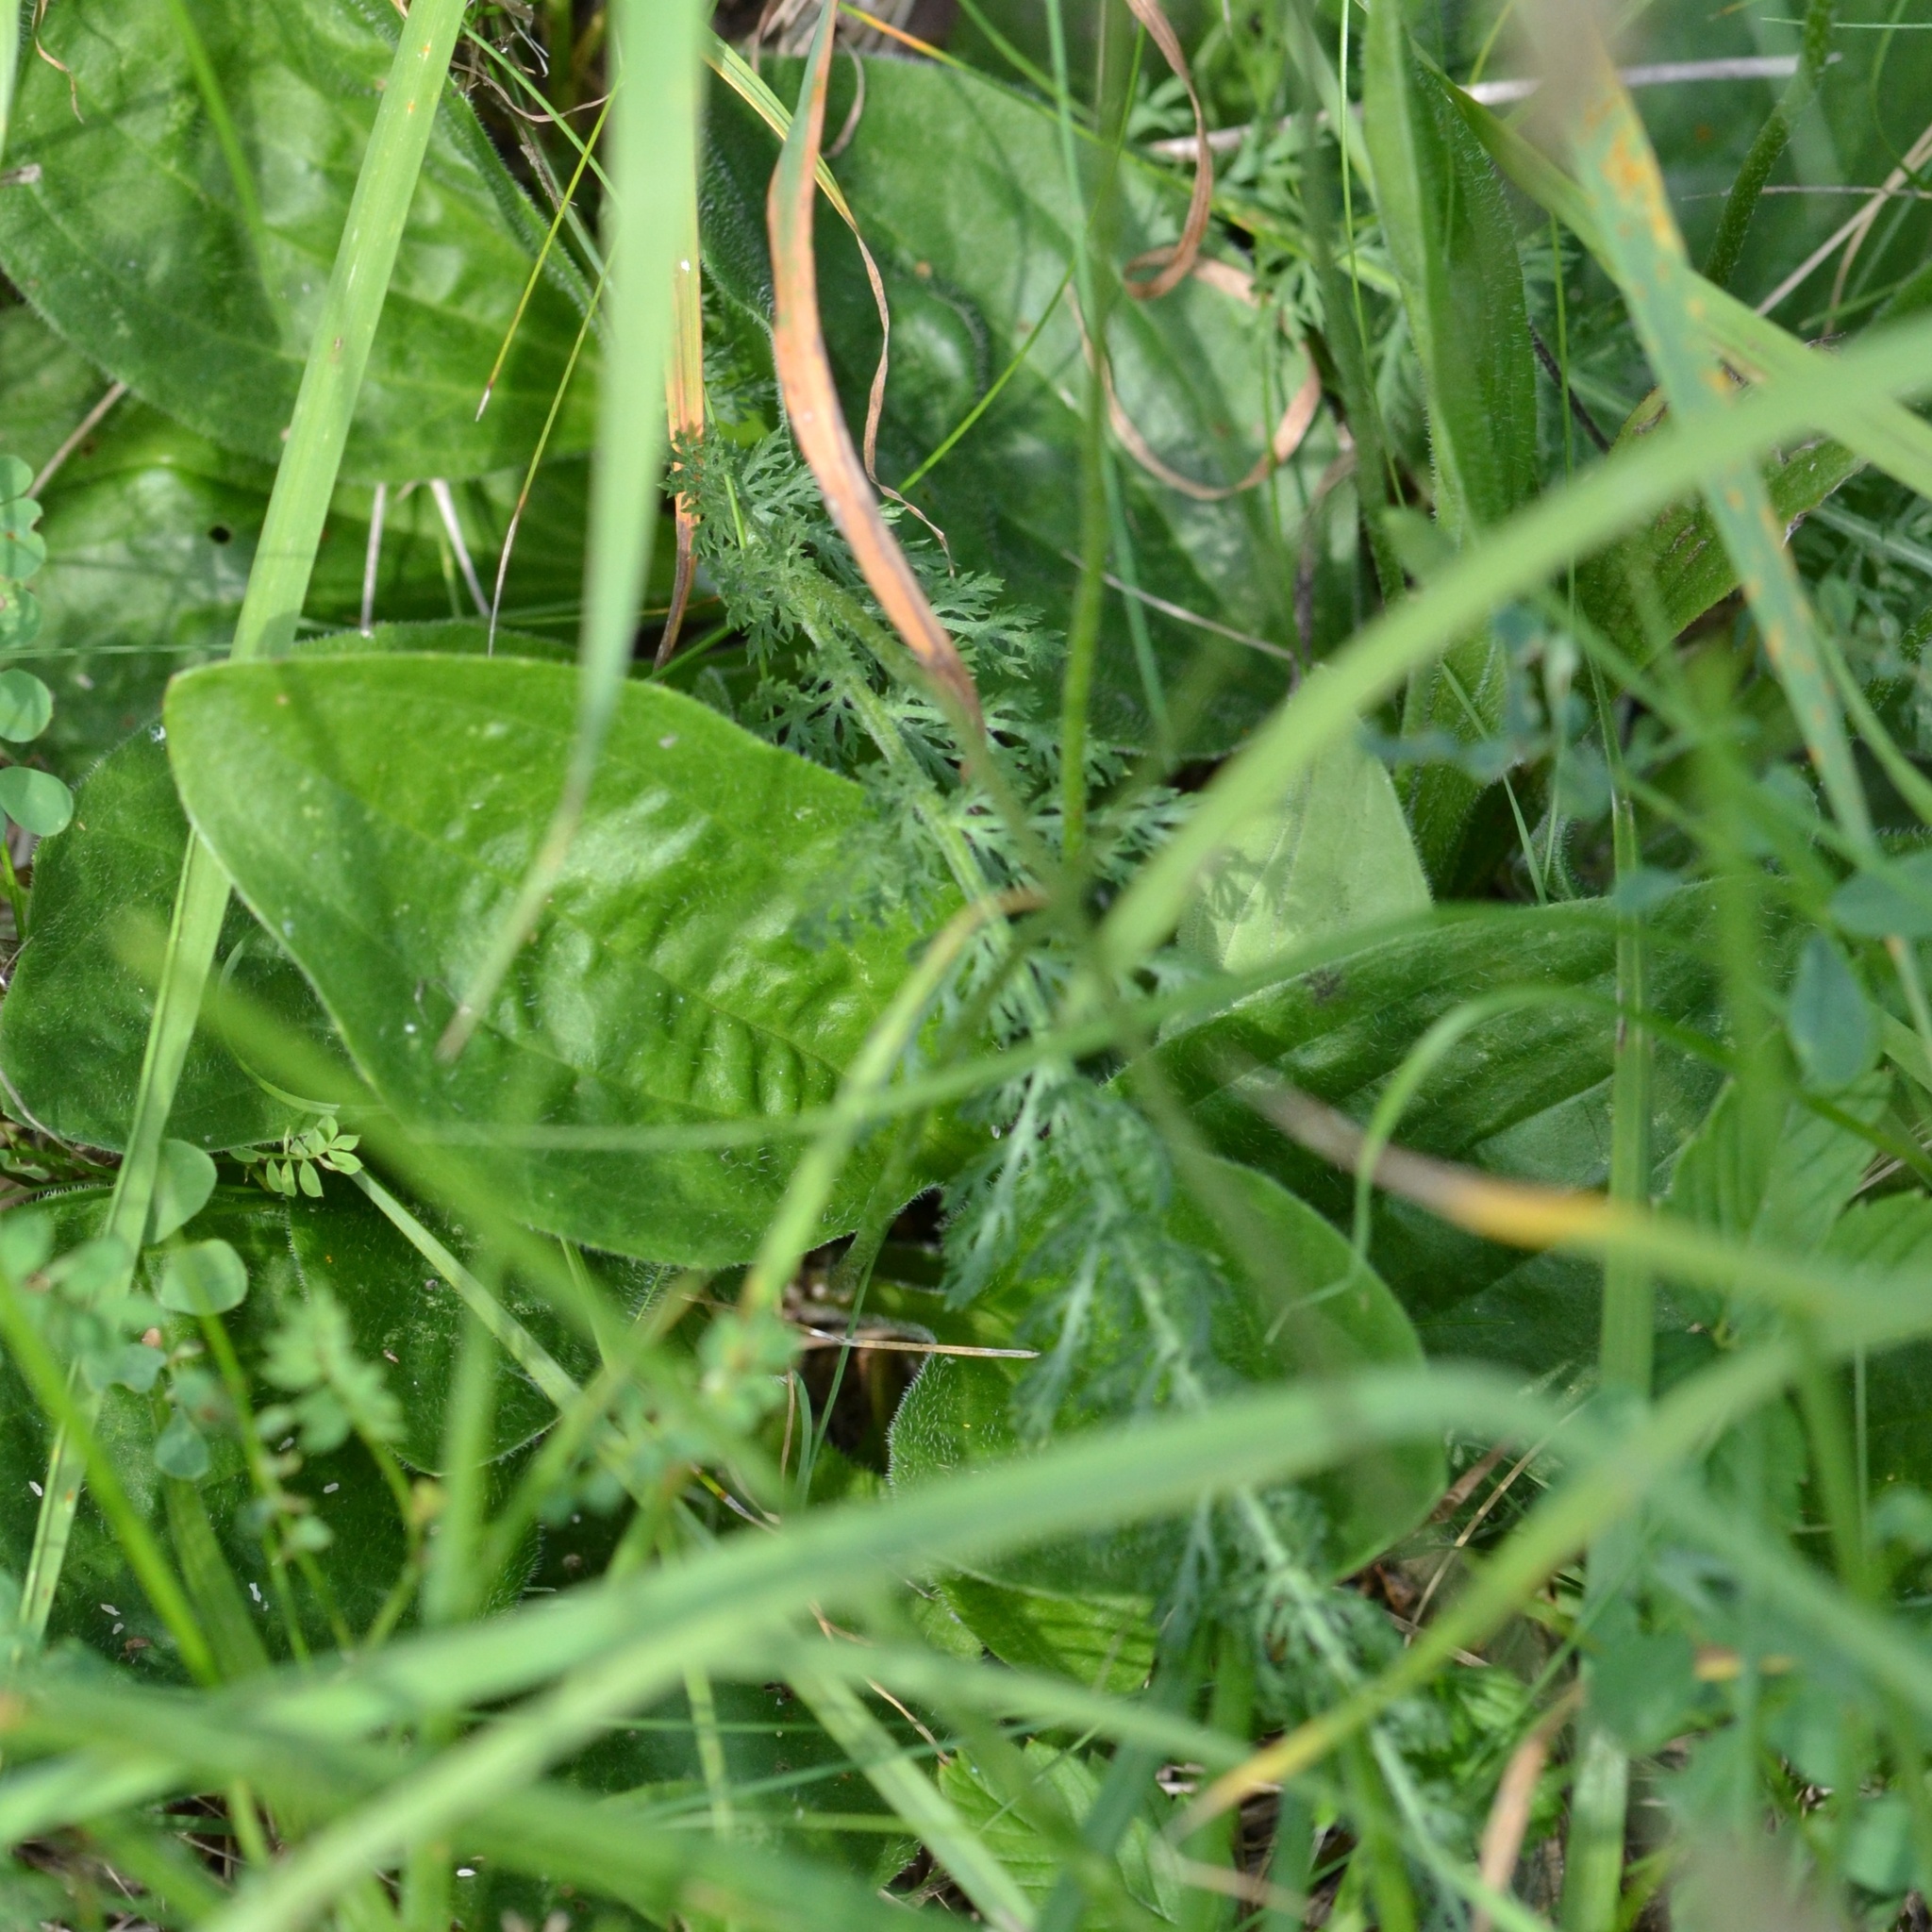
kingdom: Plantae
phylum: Tracheophyta
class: Magnoliopsida
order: Lamiales
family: Plantaginaceae
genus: Plantago
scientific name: Plantago media
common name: Hoary plantain
